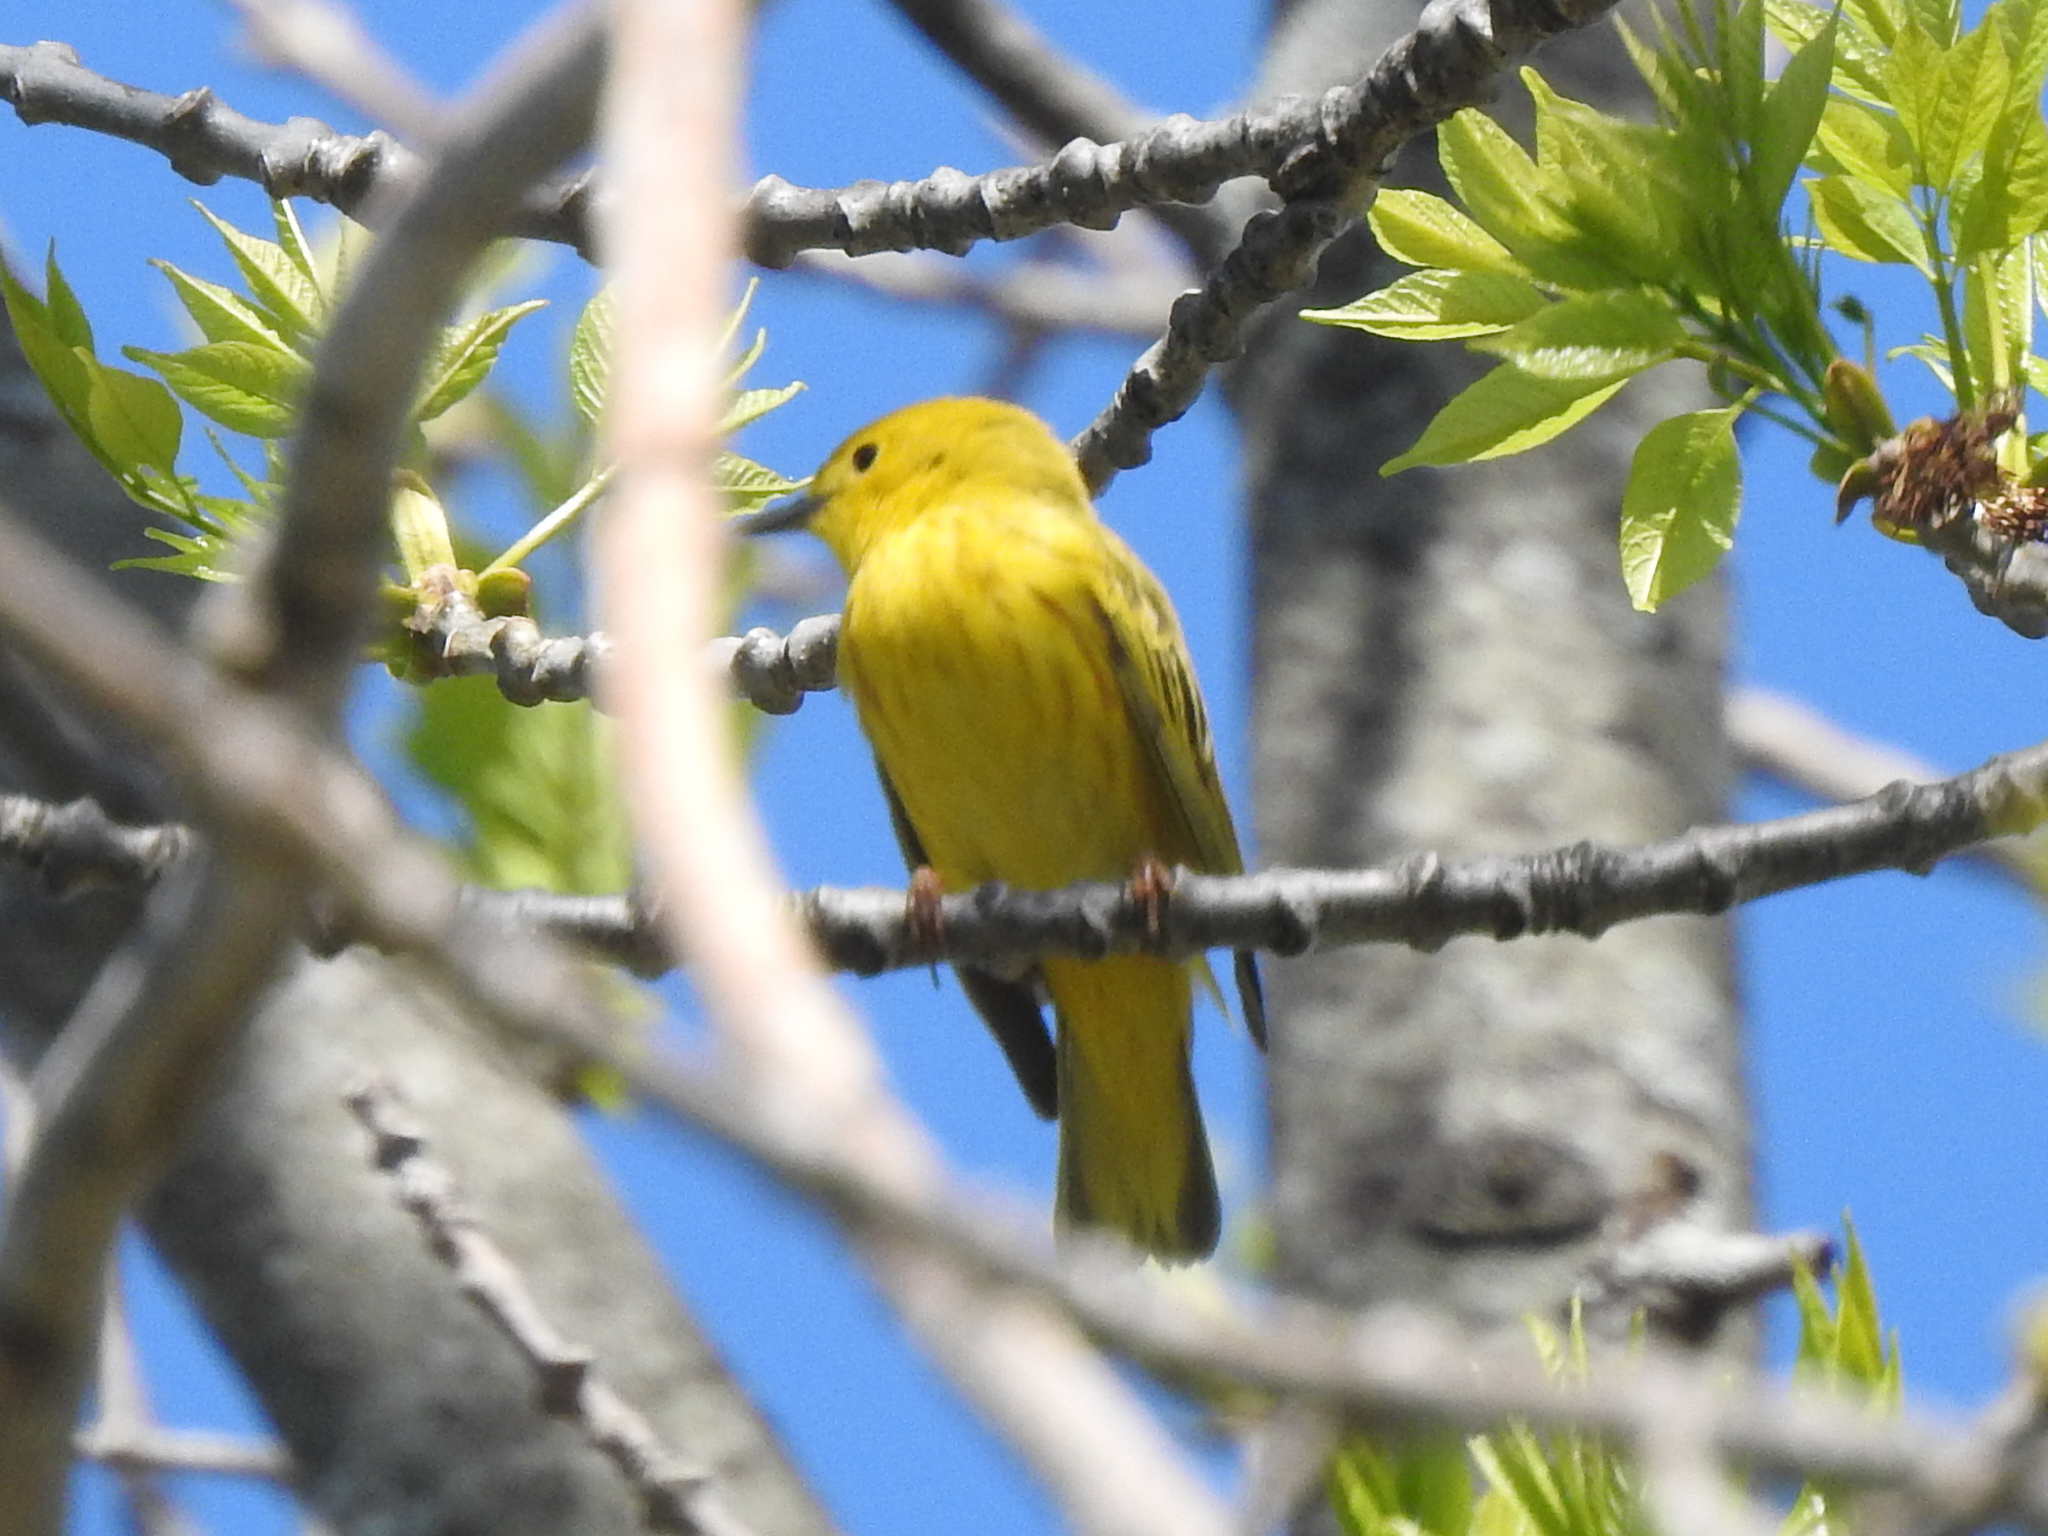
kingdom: Animalia
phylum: Chordata
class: Aves
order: Passeriformes
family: Parulidae
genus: Setophaga
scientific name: Setophaga petechia
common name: Yellow warbler
